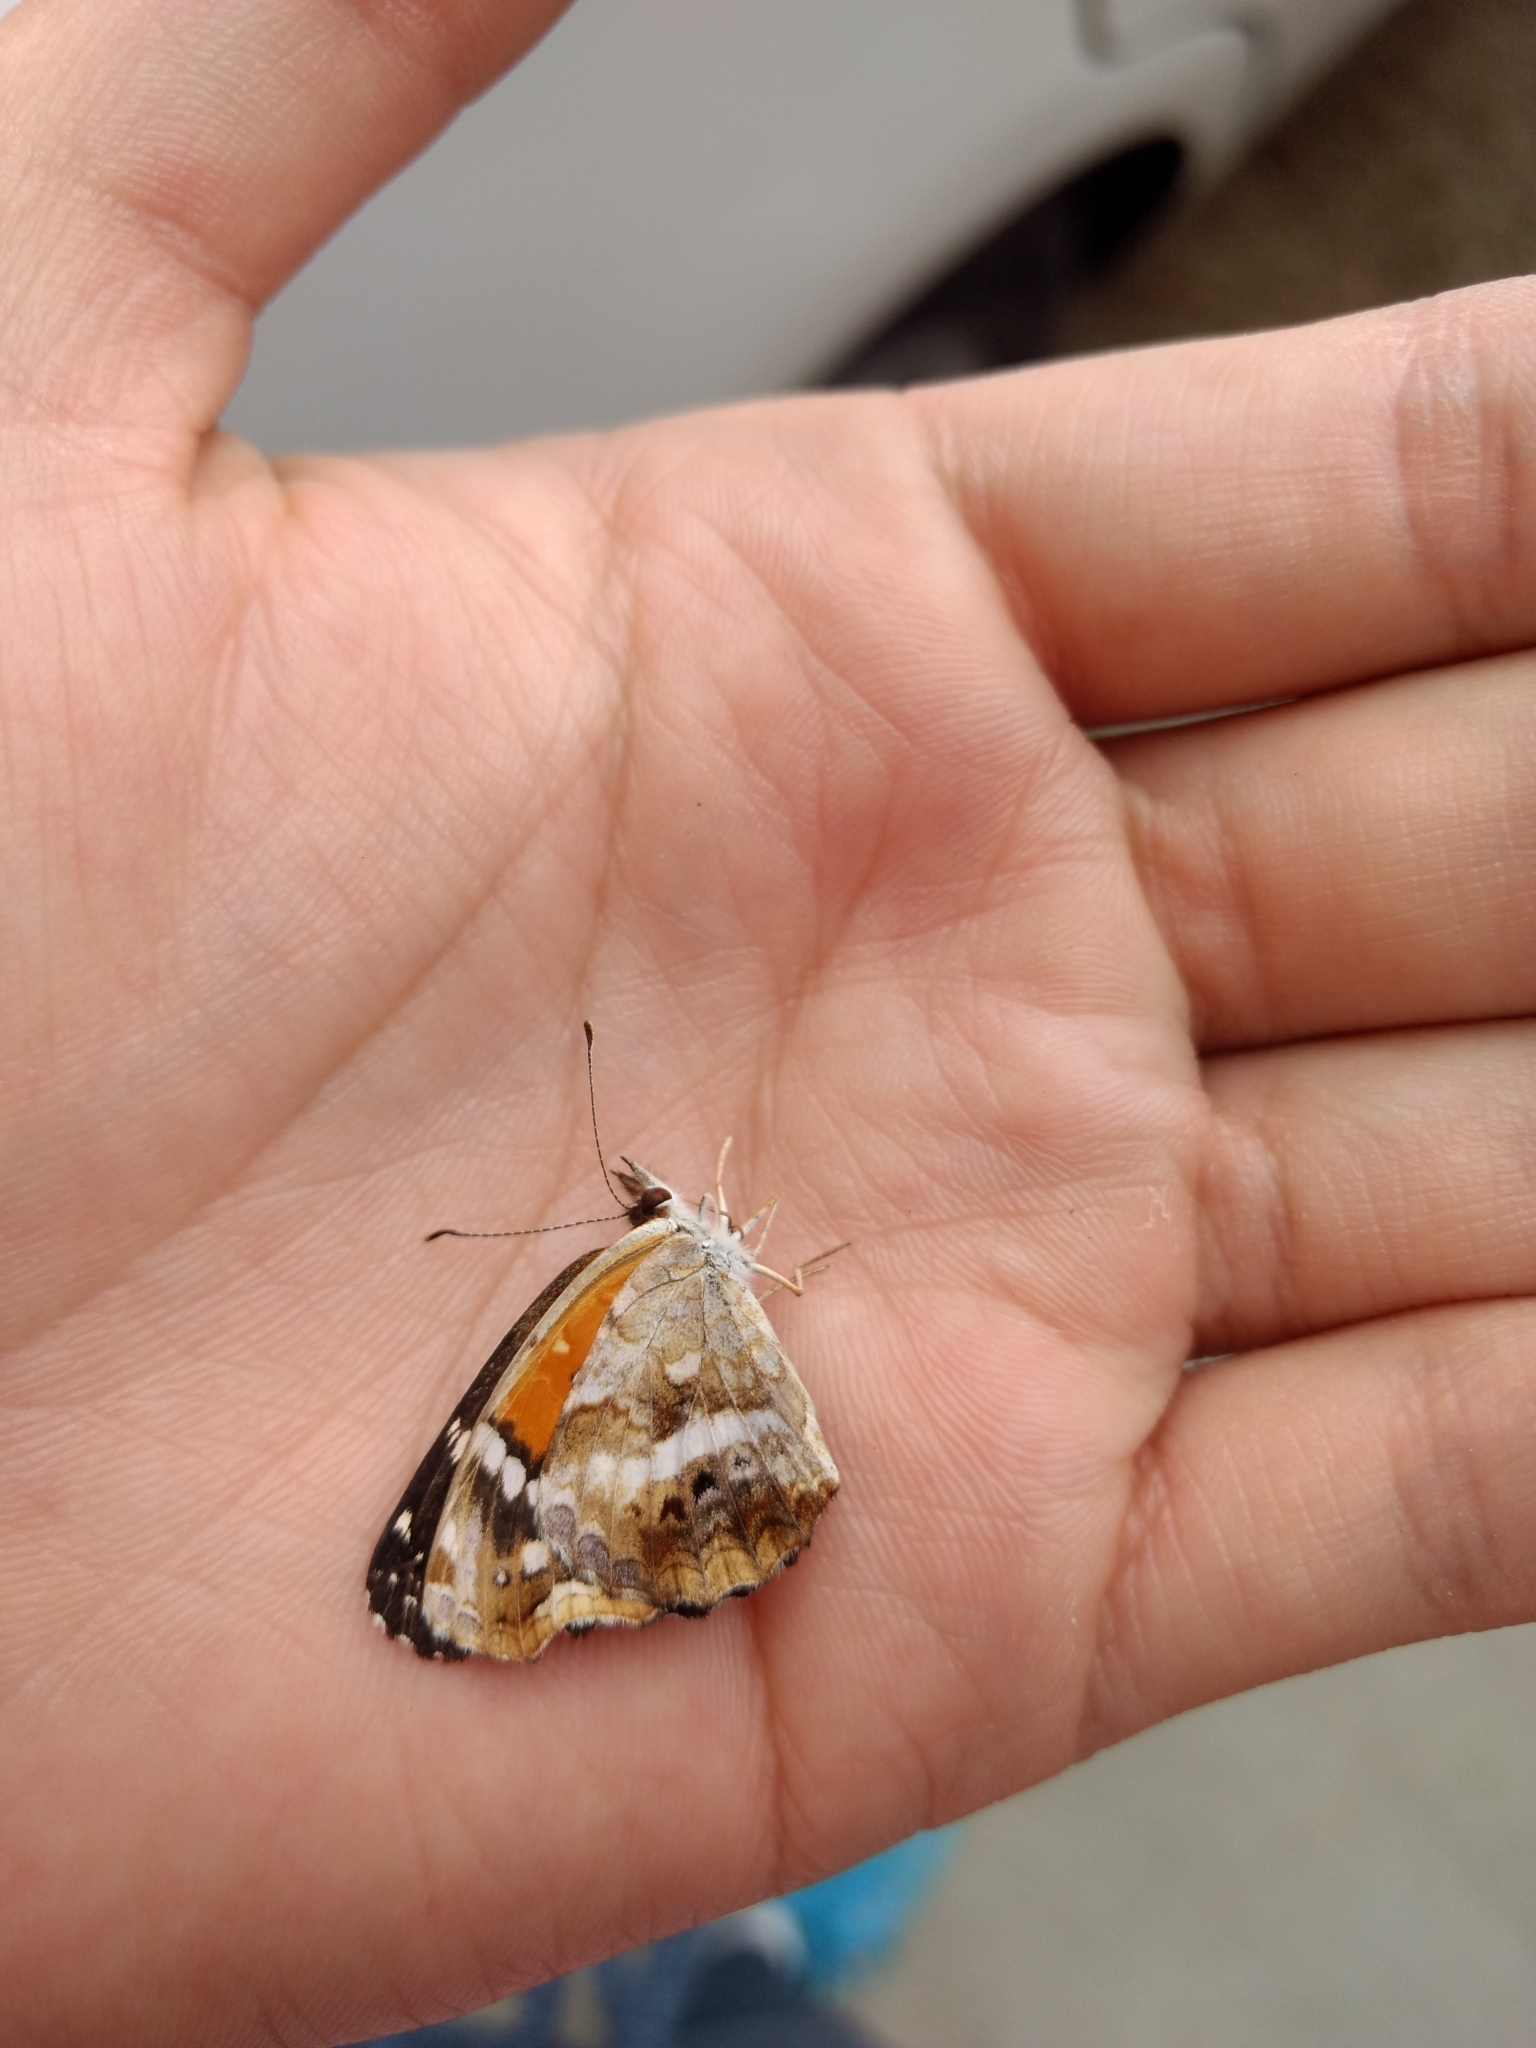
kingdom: Animalia
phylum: Arthropoda
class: Insecta
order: Lepidoptera
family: Nymphalidae
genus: Anthanassa
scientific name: Anthanassa texana
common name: Texan crescent
